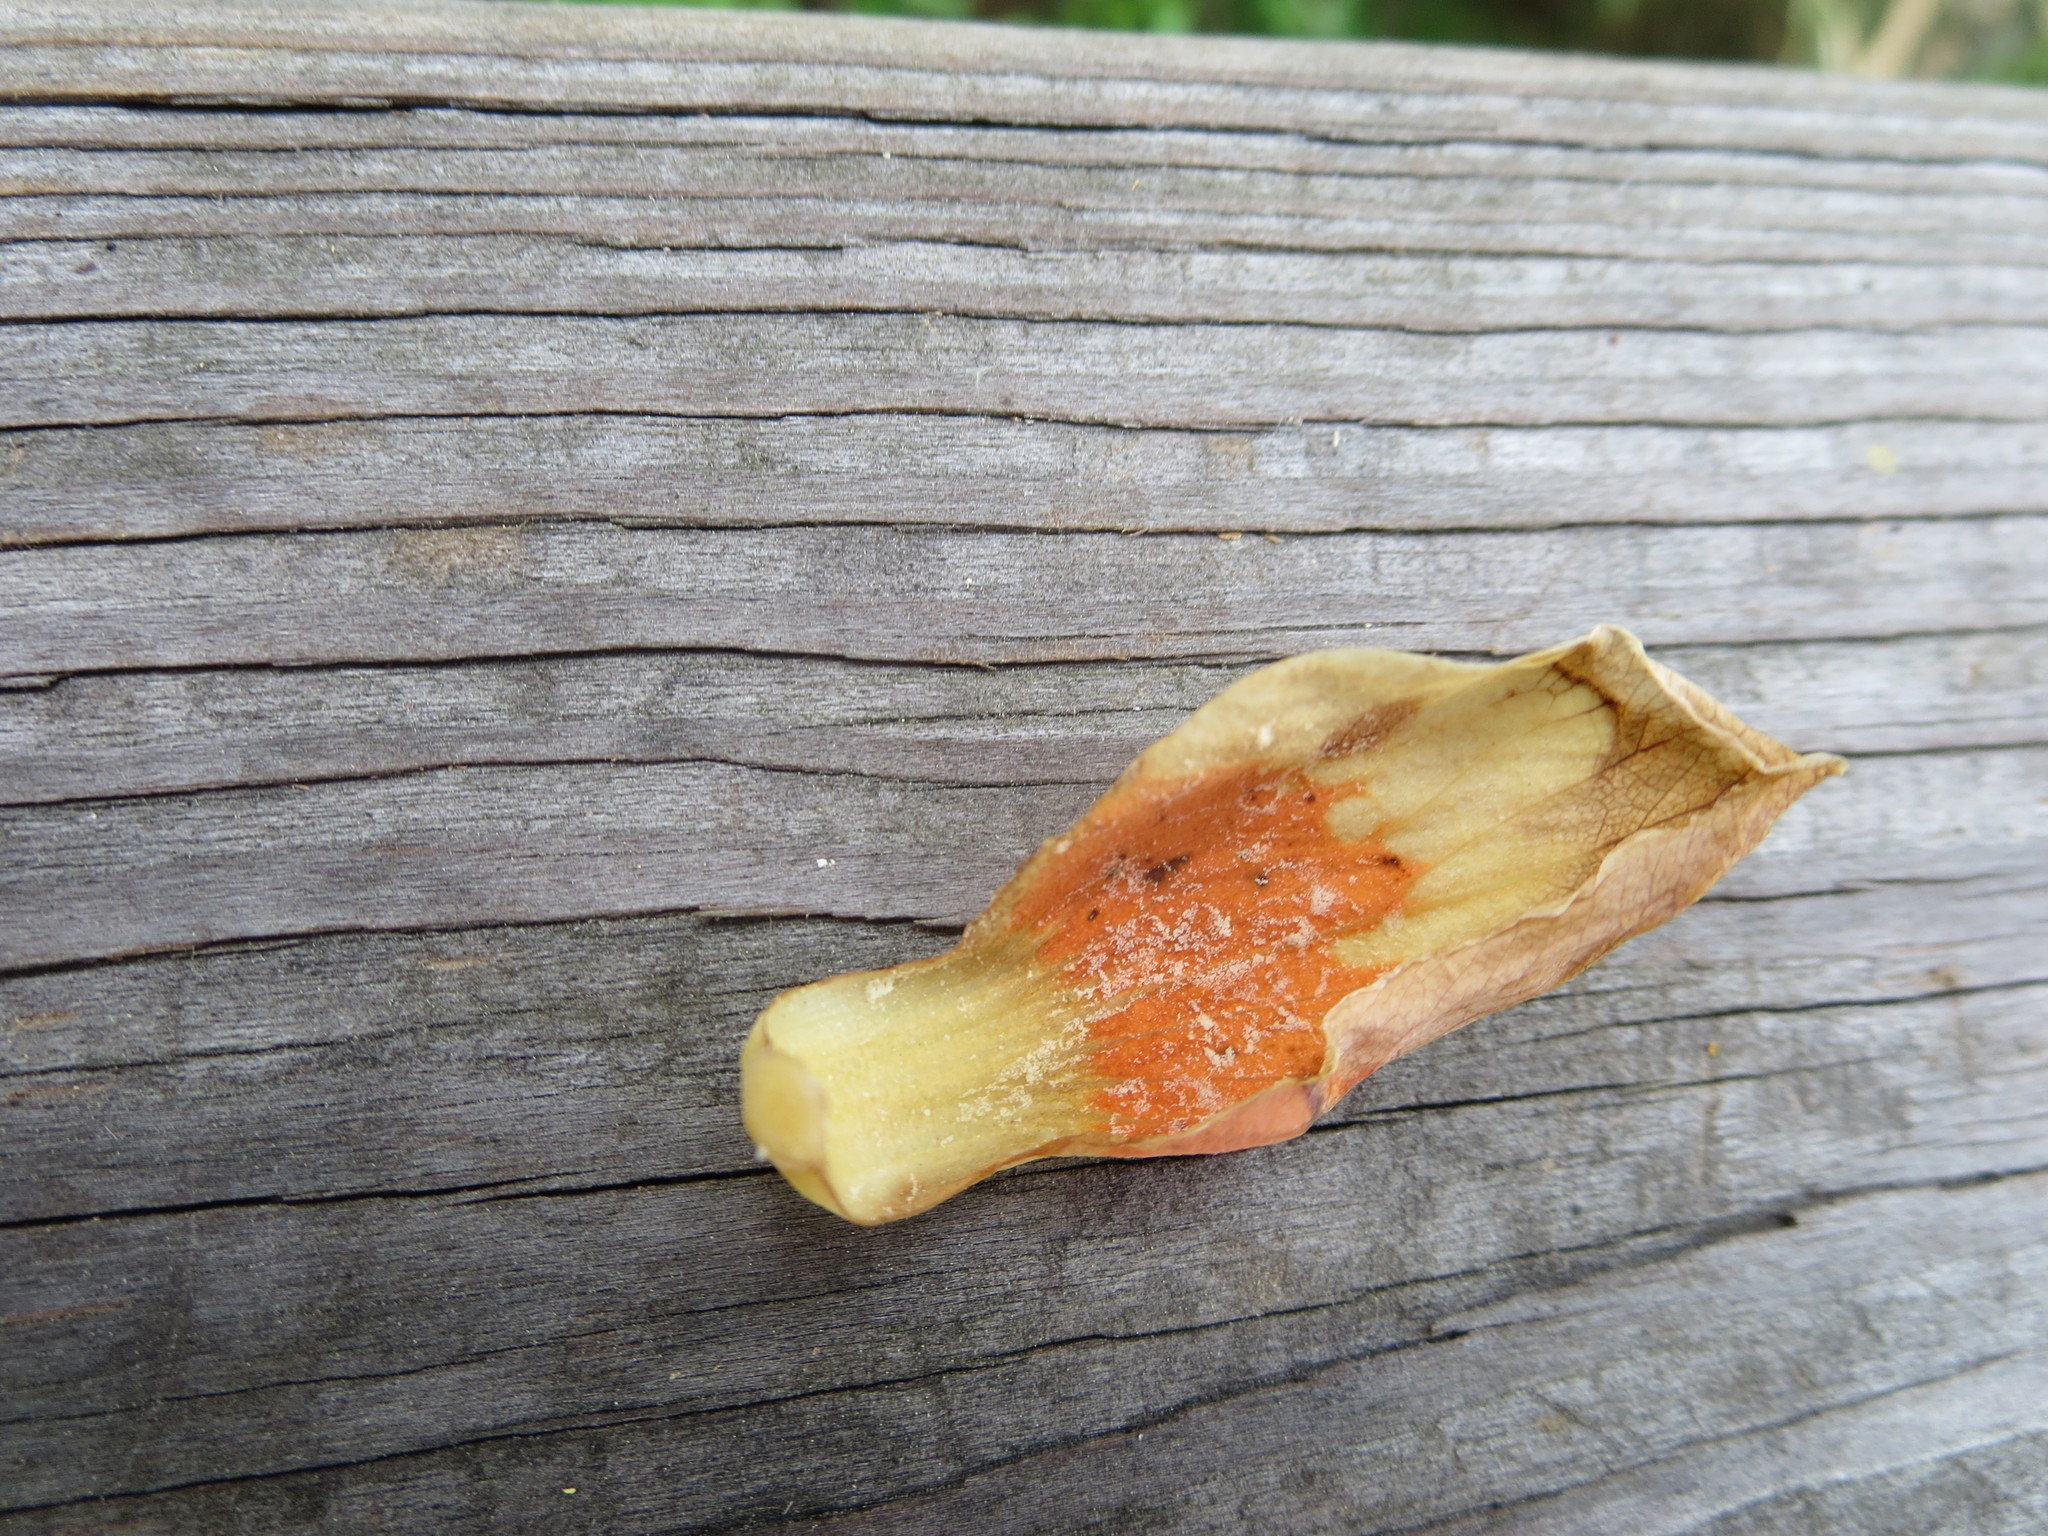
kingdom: Plantae
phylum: Tracheophyta
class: Magnoliopsida
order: Magnoliales
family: Magnoliaceae
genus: Liriodendron
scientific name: Liriodendron tulipifera
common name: Tulip tree
